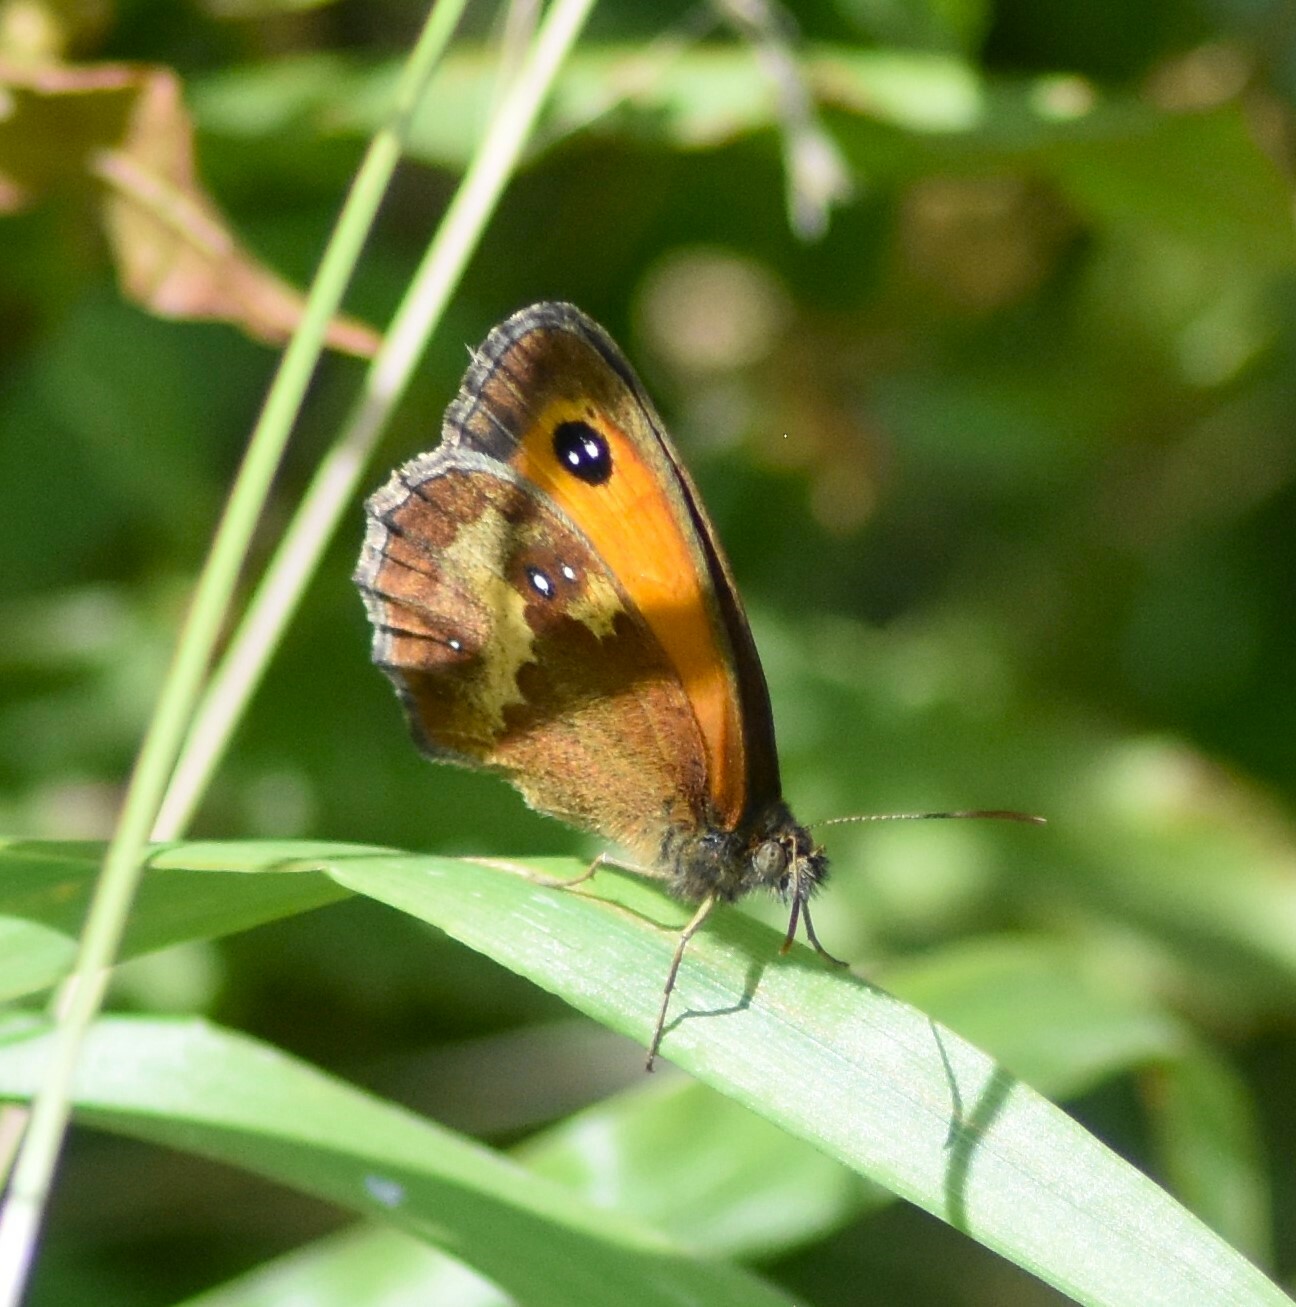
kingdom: Animalia
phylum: Arthropoda
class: Insecta
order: Lepidoptera
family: Nymphalidae
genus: Pyronia
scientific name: Pyronia tithonus
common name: Gatekeeper
